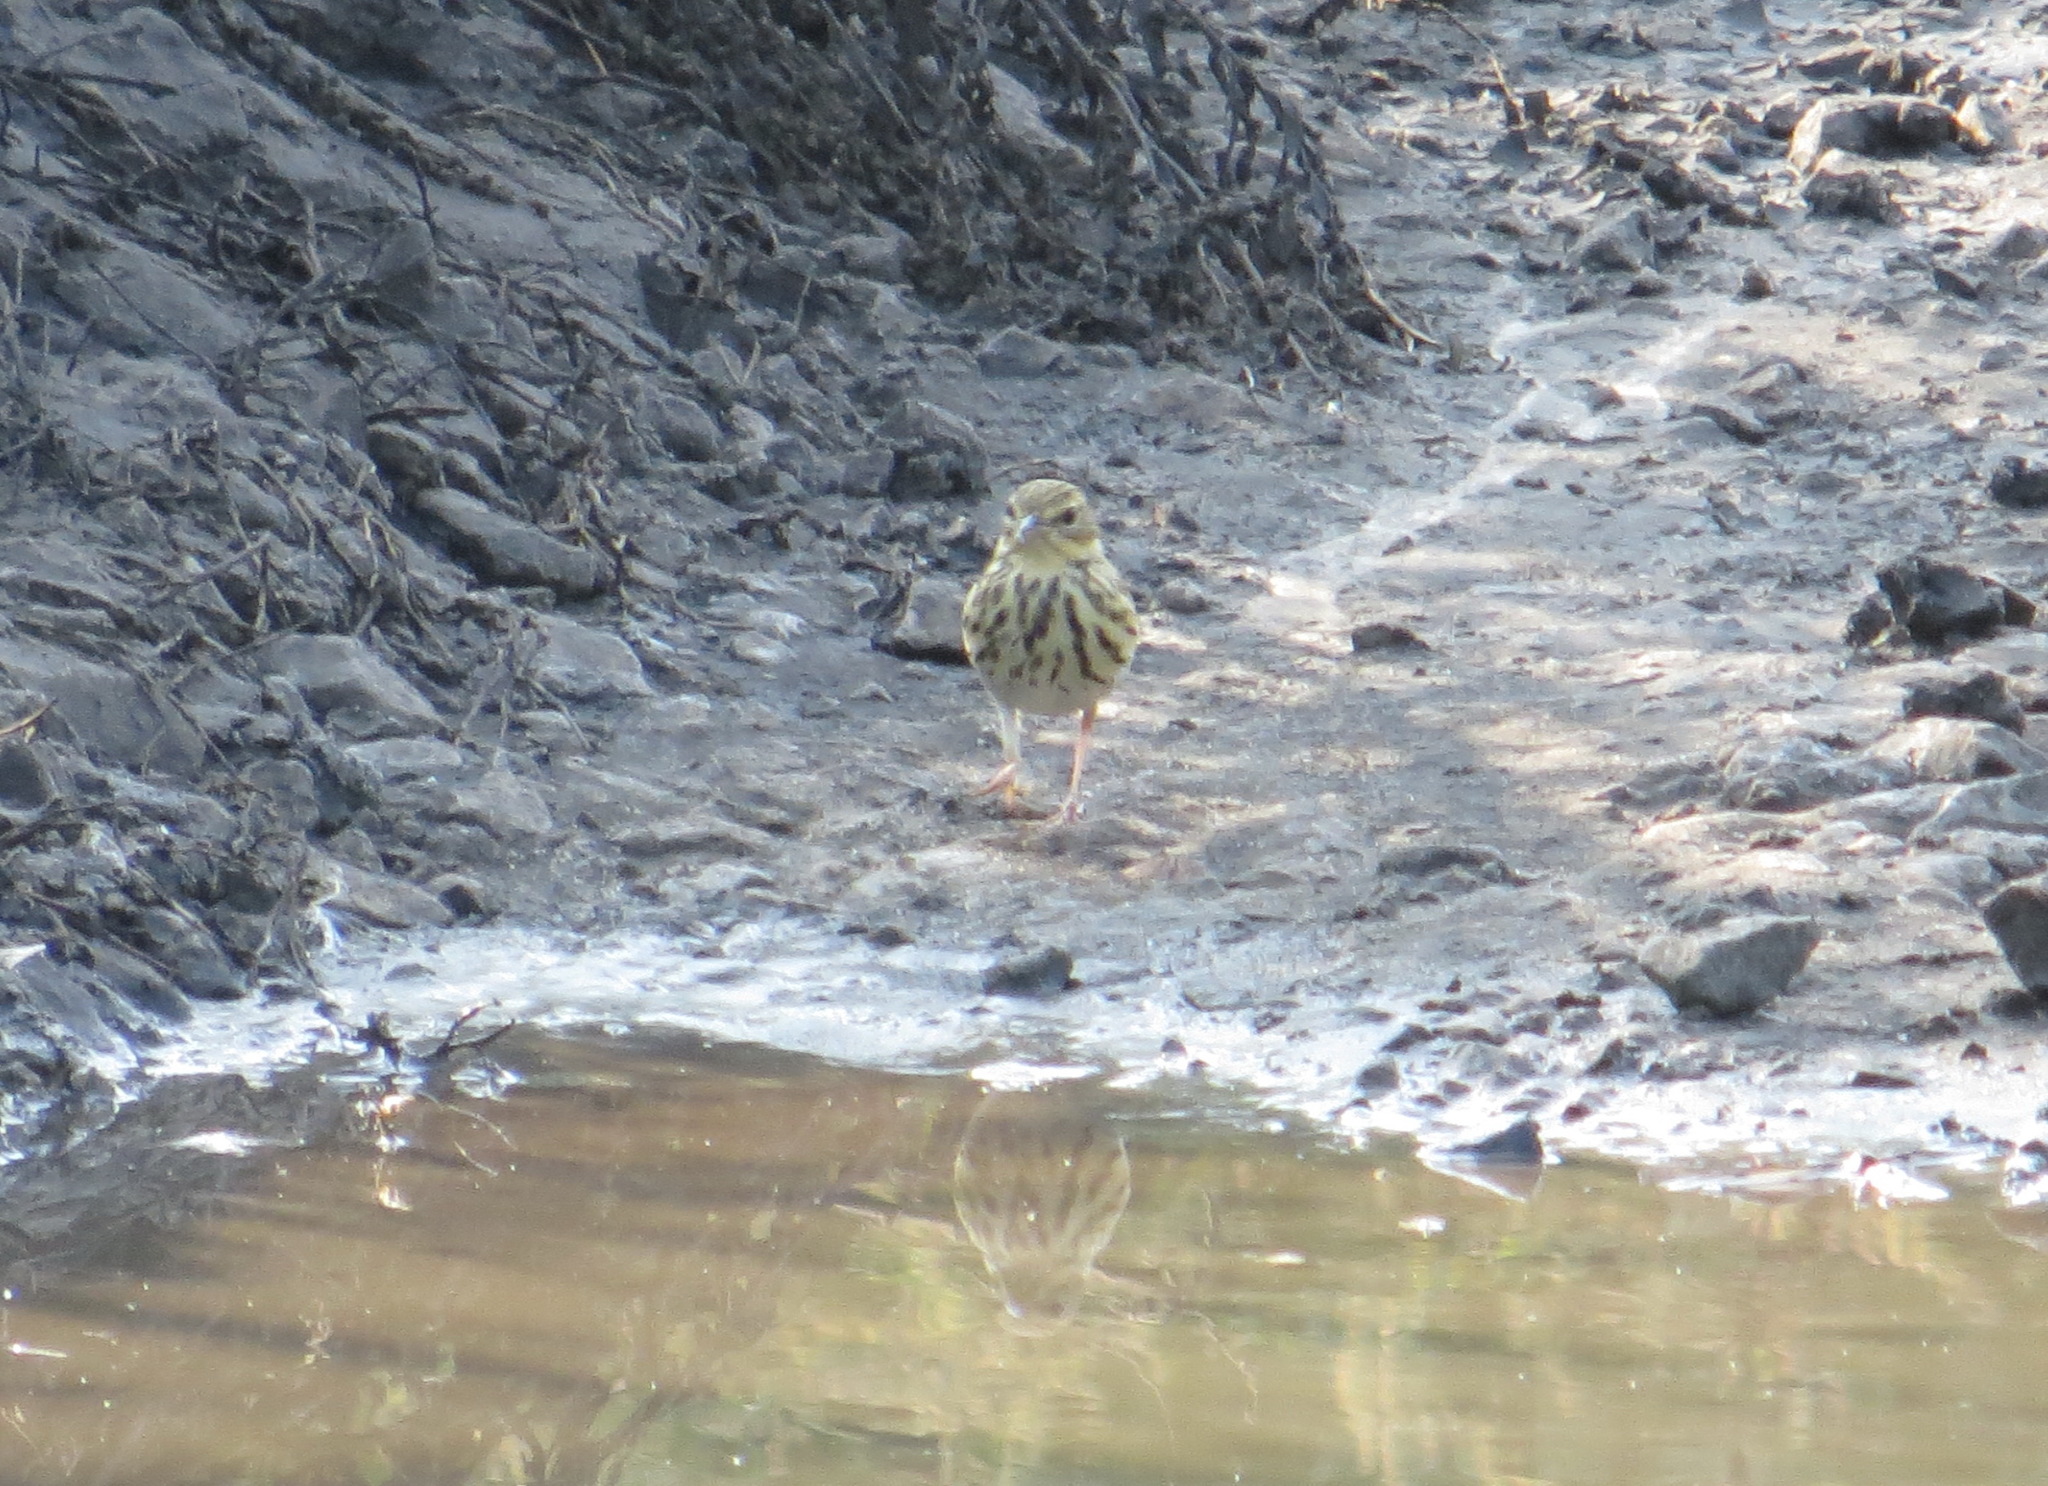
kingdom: Animalia
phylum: Chordata
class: Aves
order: Passeriformes
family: Motacillidae
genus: Anthus
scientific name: Anthus trivialis
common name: Tree pipit
